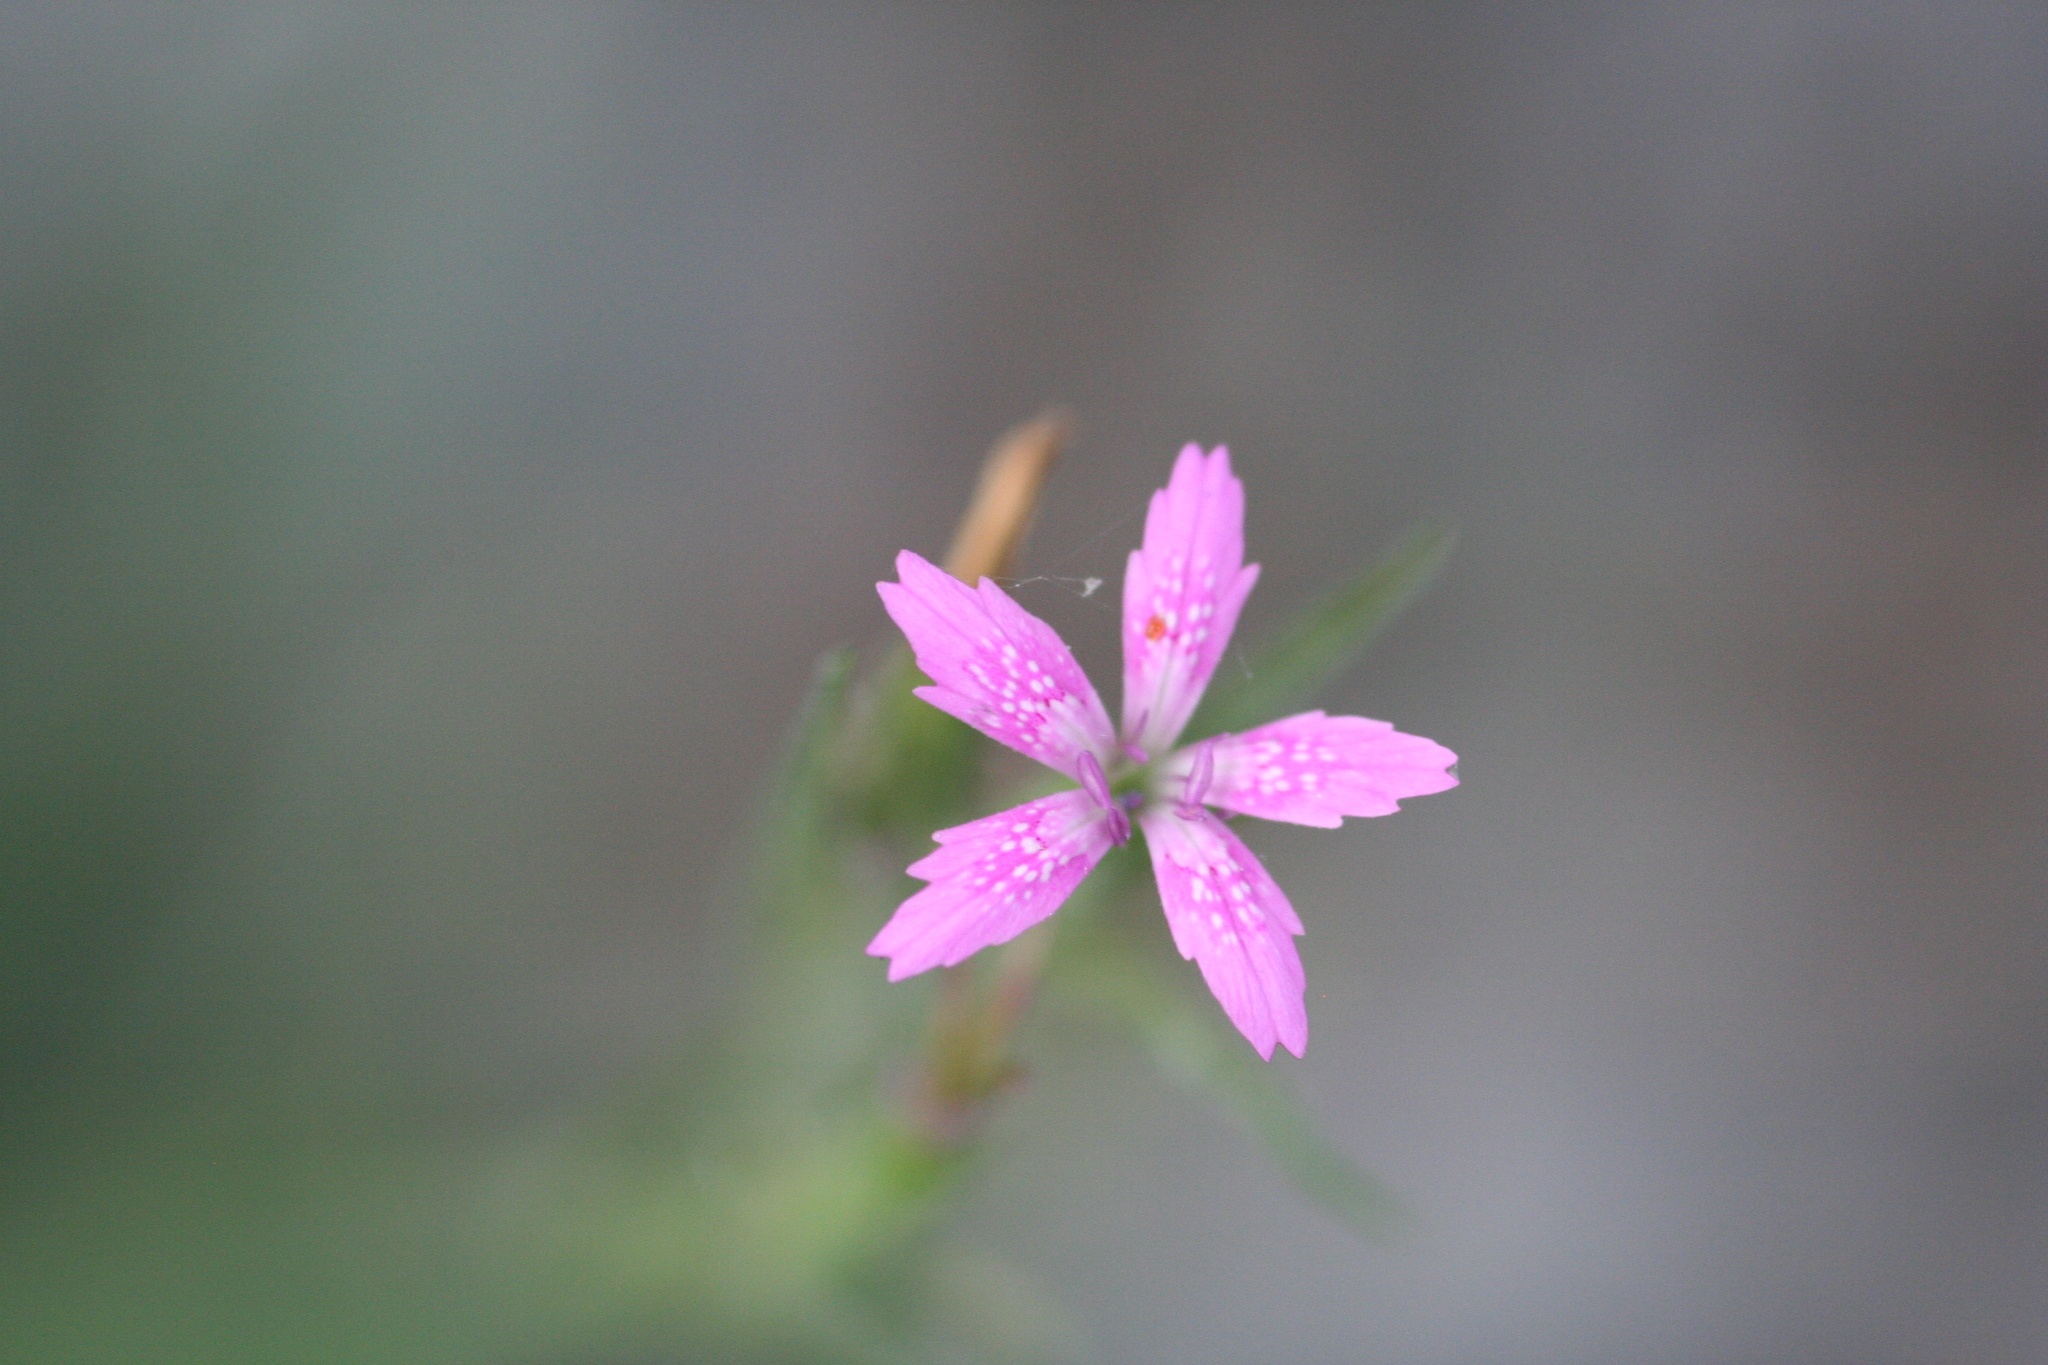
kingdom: Plantae
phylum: Tracheophyta
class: Magnoliopsida
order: Caryophyllales
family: Caryophyllaceae
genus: Dianthus
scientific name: Dianthus armeria
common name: Deptford pink
